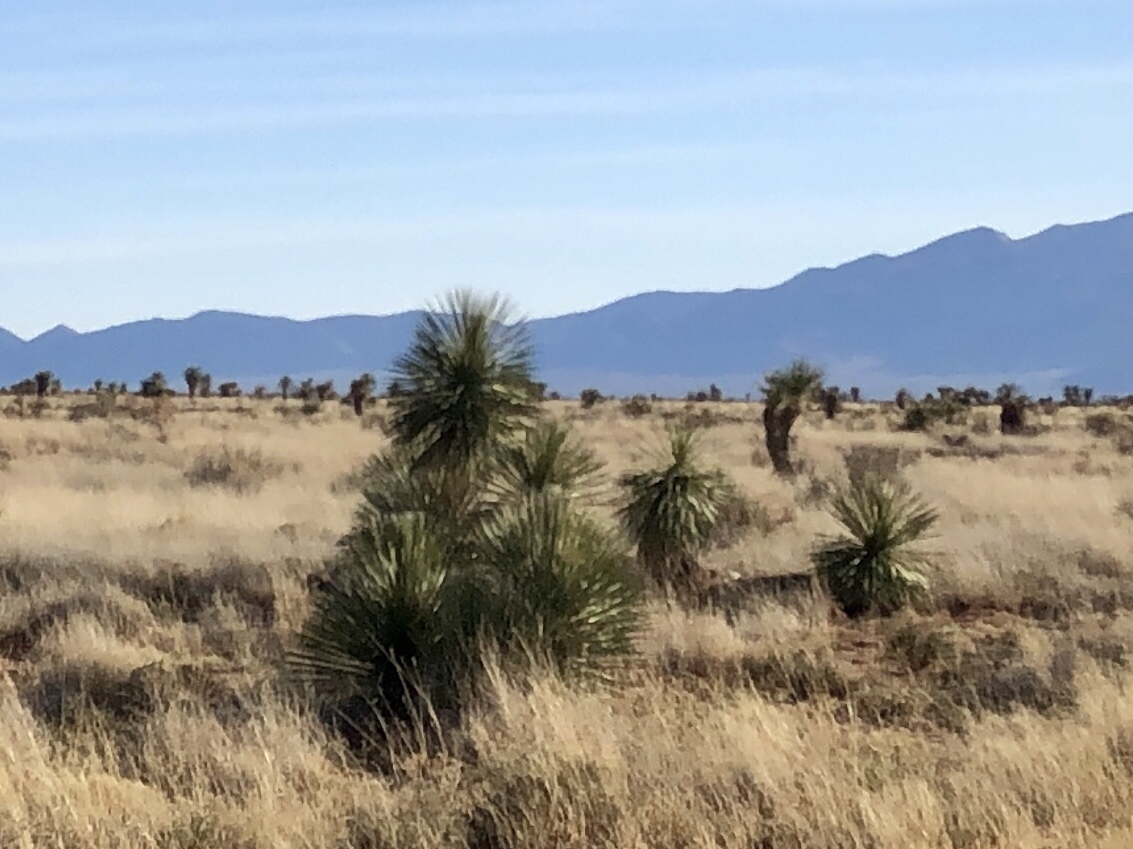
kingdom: Plantae
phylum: Tracheophyta
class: Liliopsida
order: Asparagales
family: Asparagaceae
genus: Yucca
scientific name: Yucca elata
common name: Palmella
